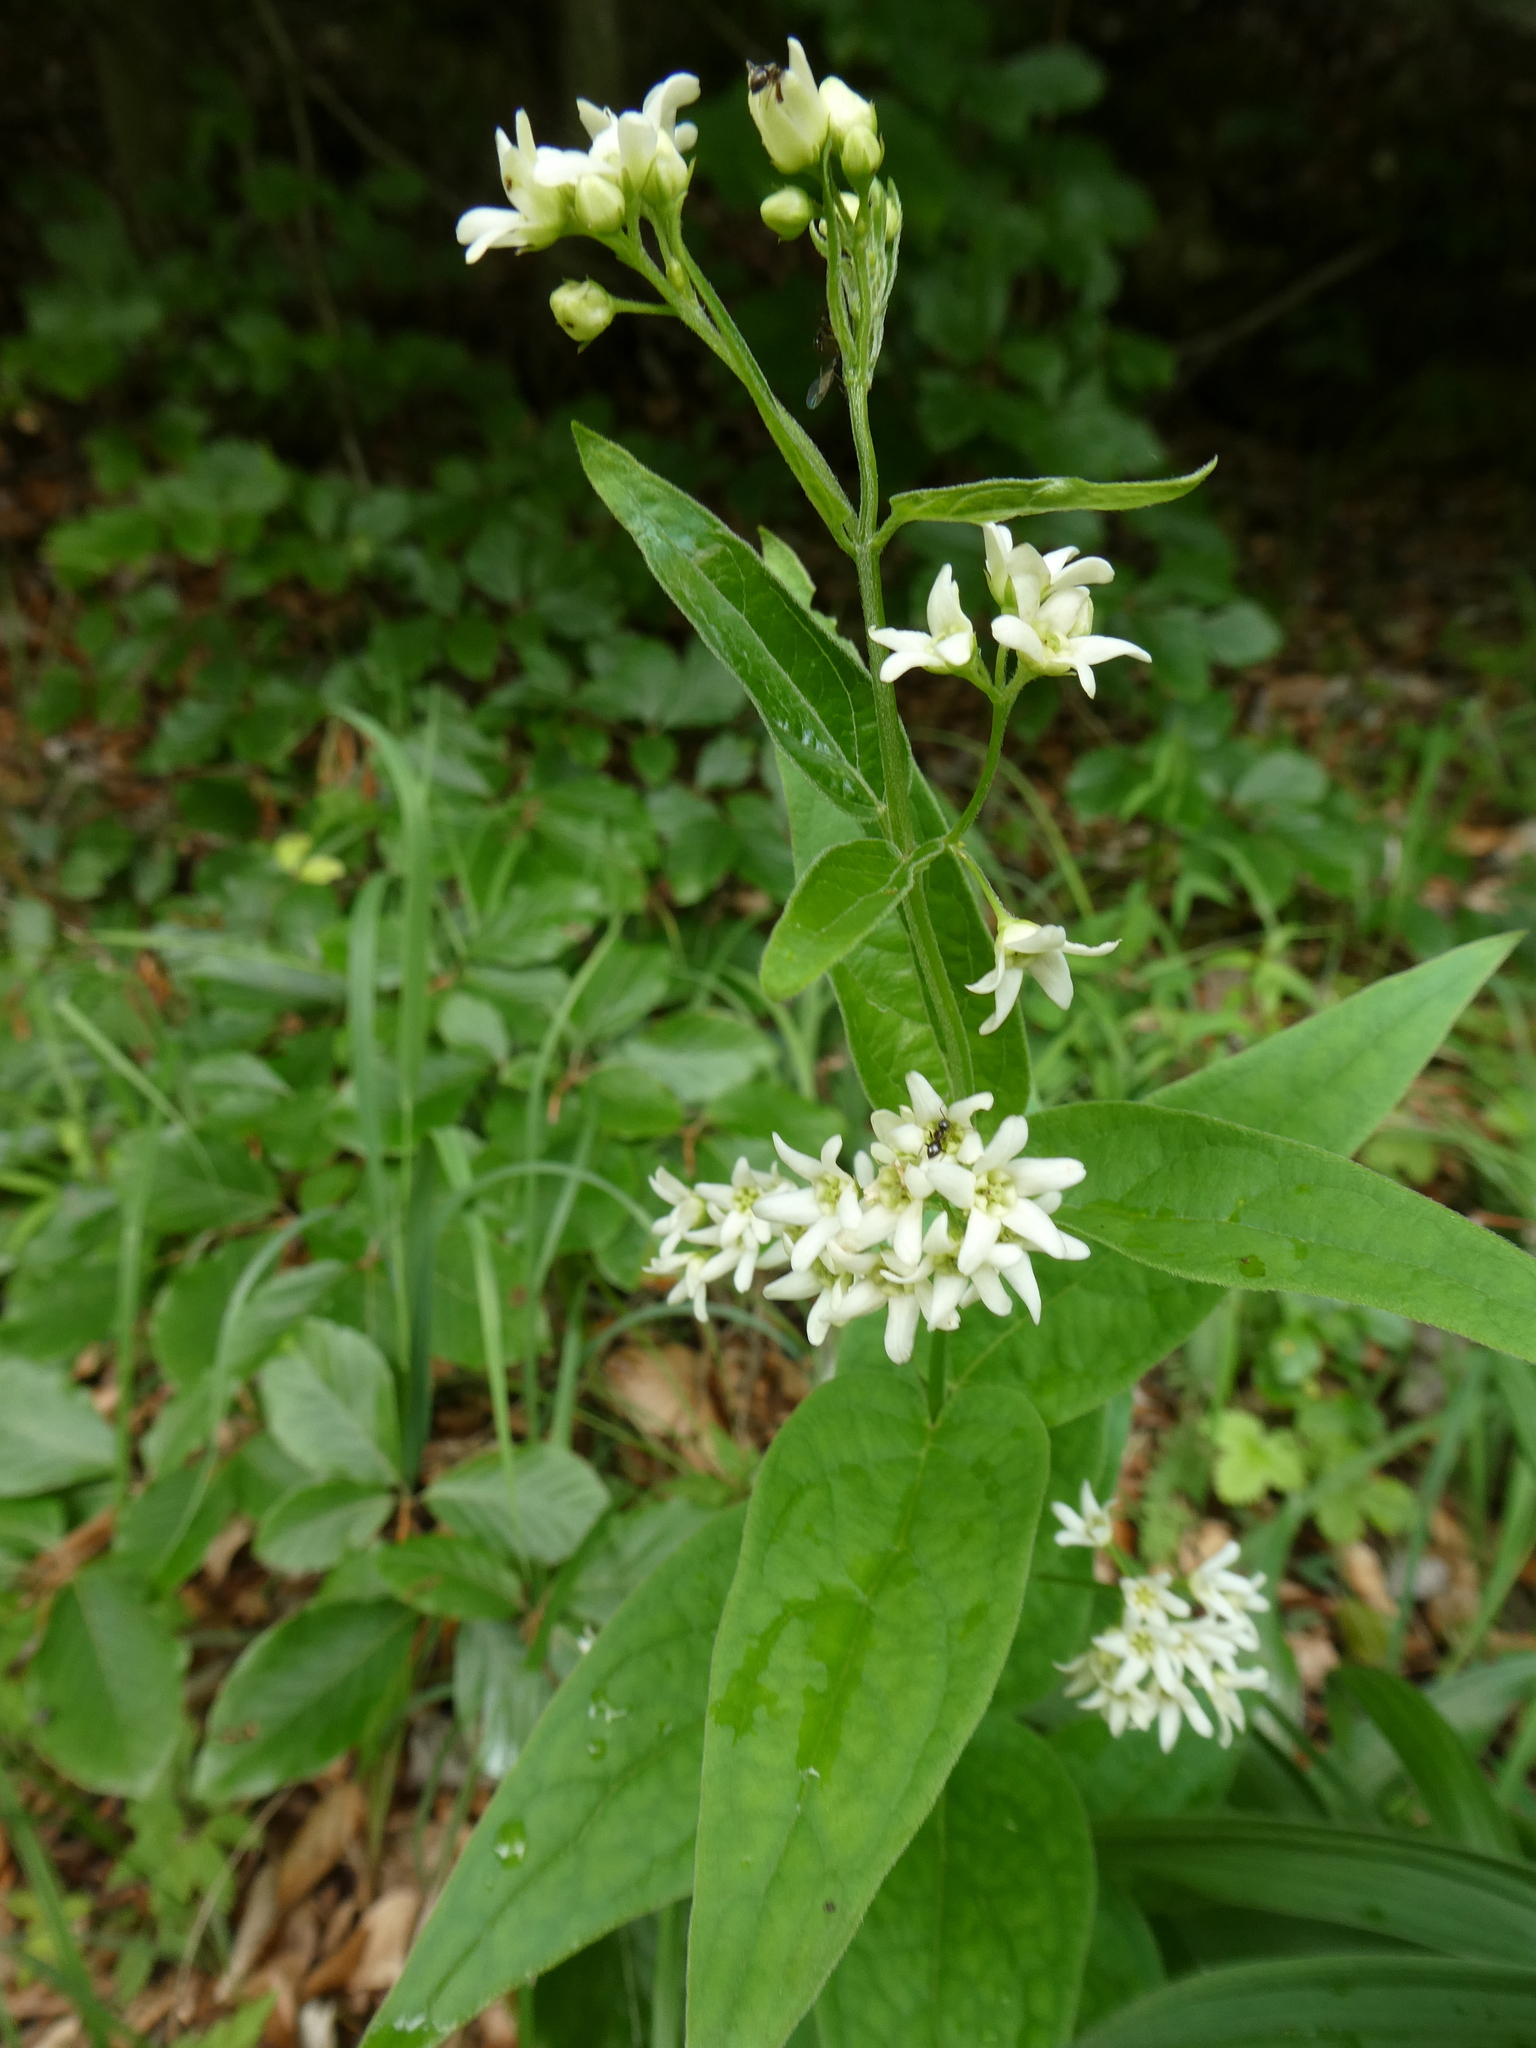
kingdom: Plantae
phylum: Tracheophyta
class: Magnoliopsida
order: Gentianales
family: Apocynaceae
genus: Vincetoxicum
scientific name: Vincetoxicum hirundinaria
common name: White swallowwort
